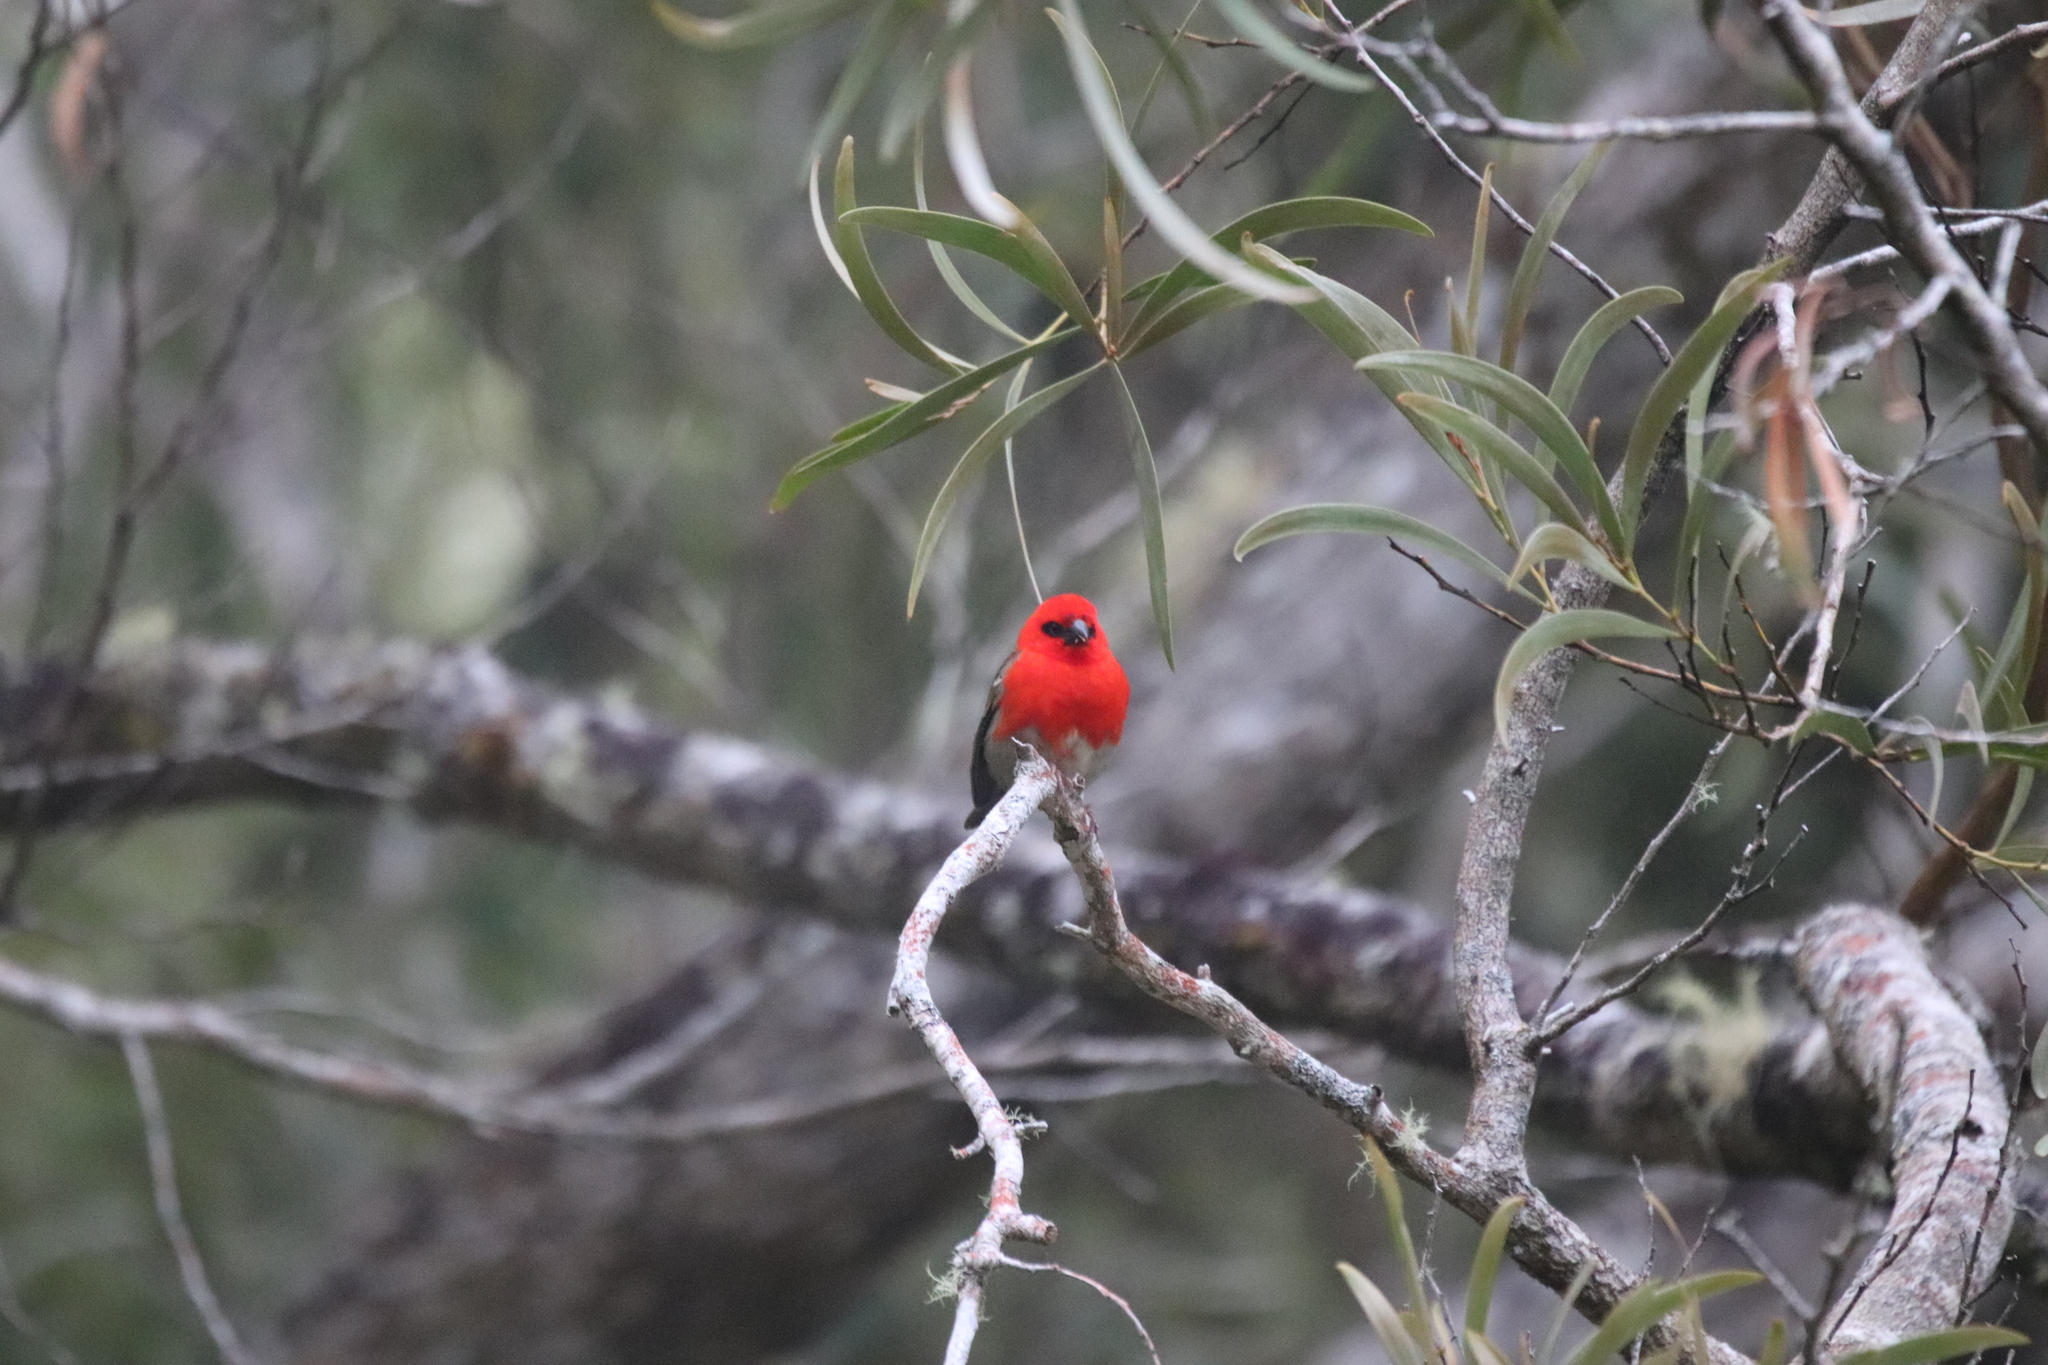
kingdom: Animalia
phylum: Chordata
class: Aves
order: Passeriformes
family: Ploceidae
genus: Foudia
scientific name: Foudia madagascariensis
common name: Red fody
